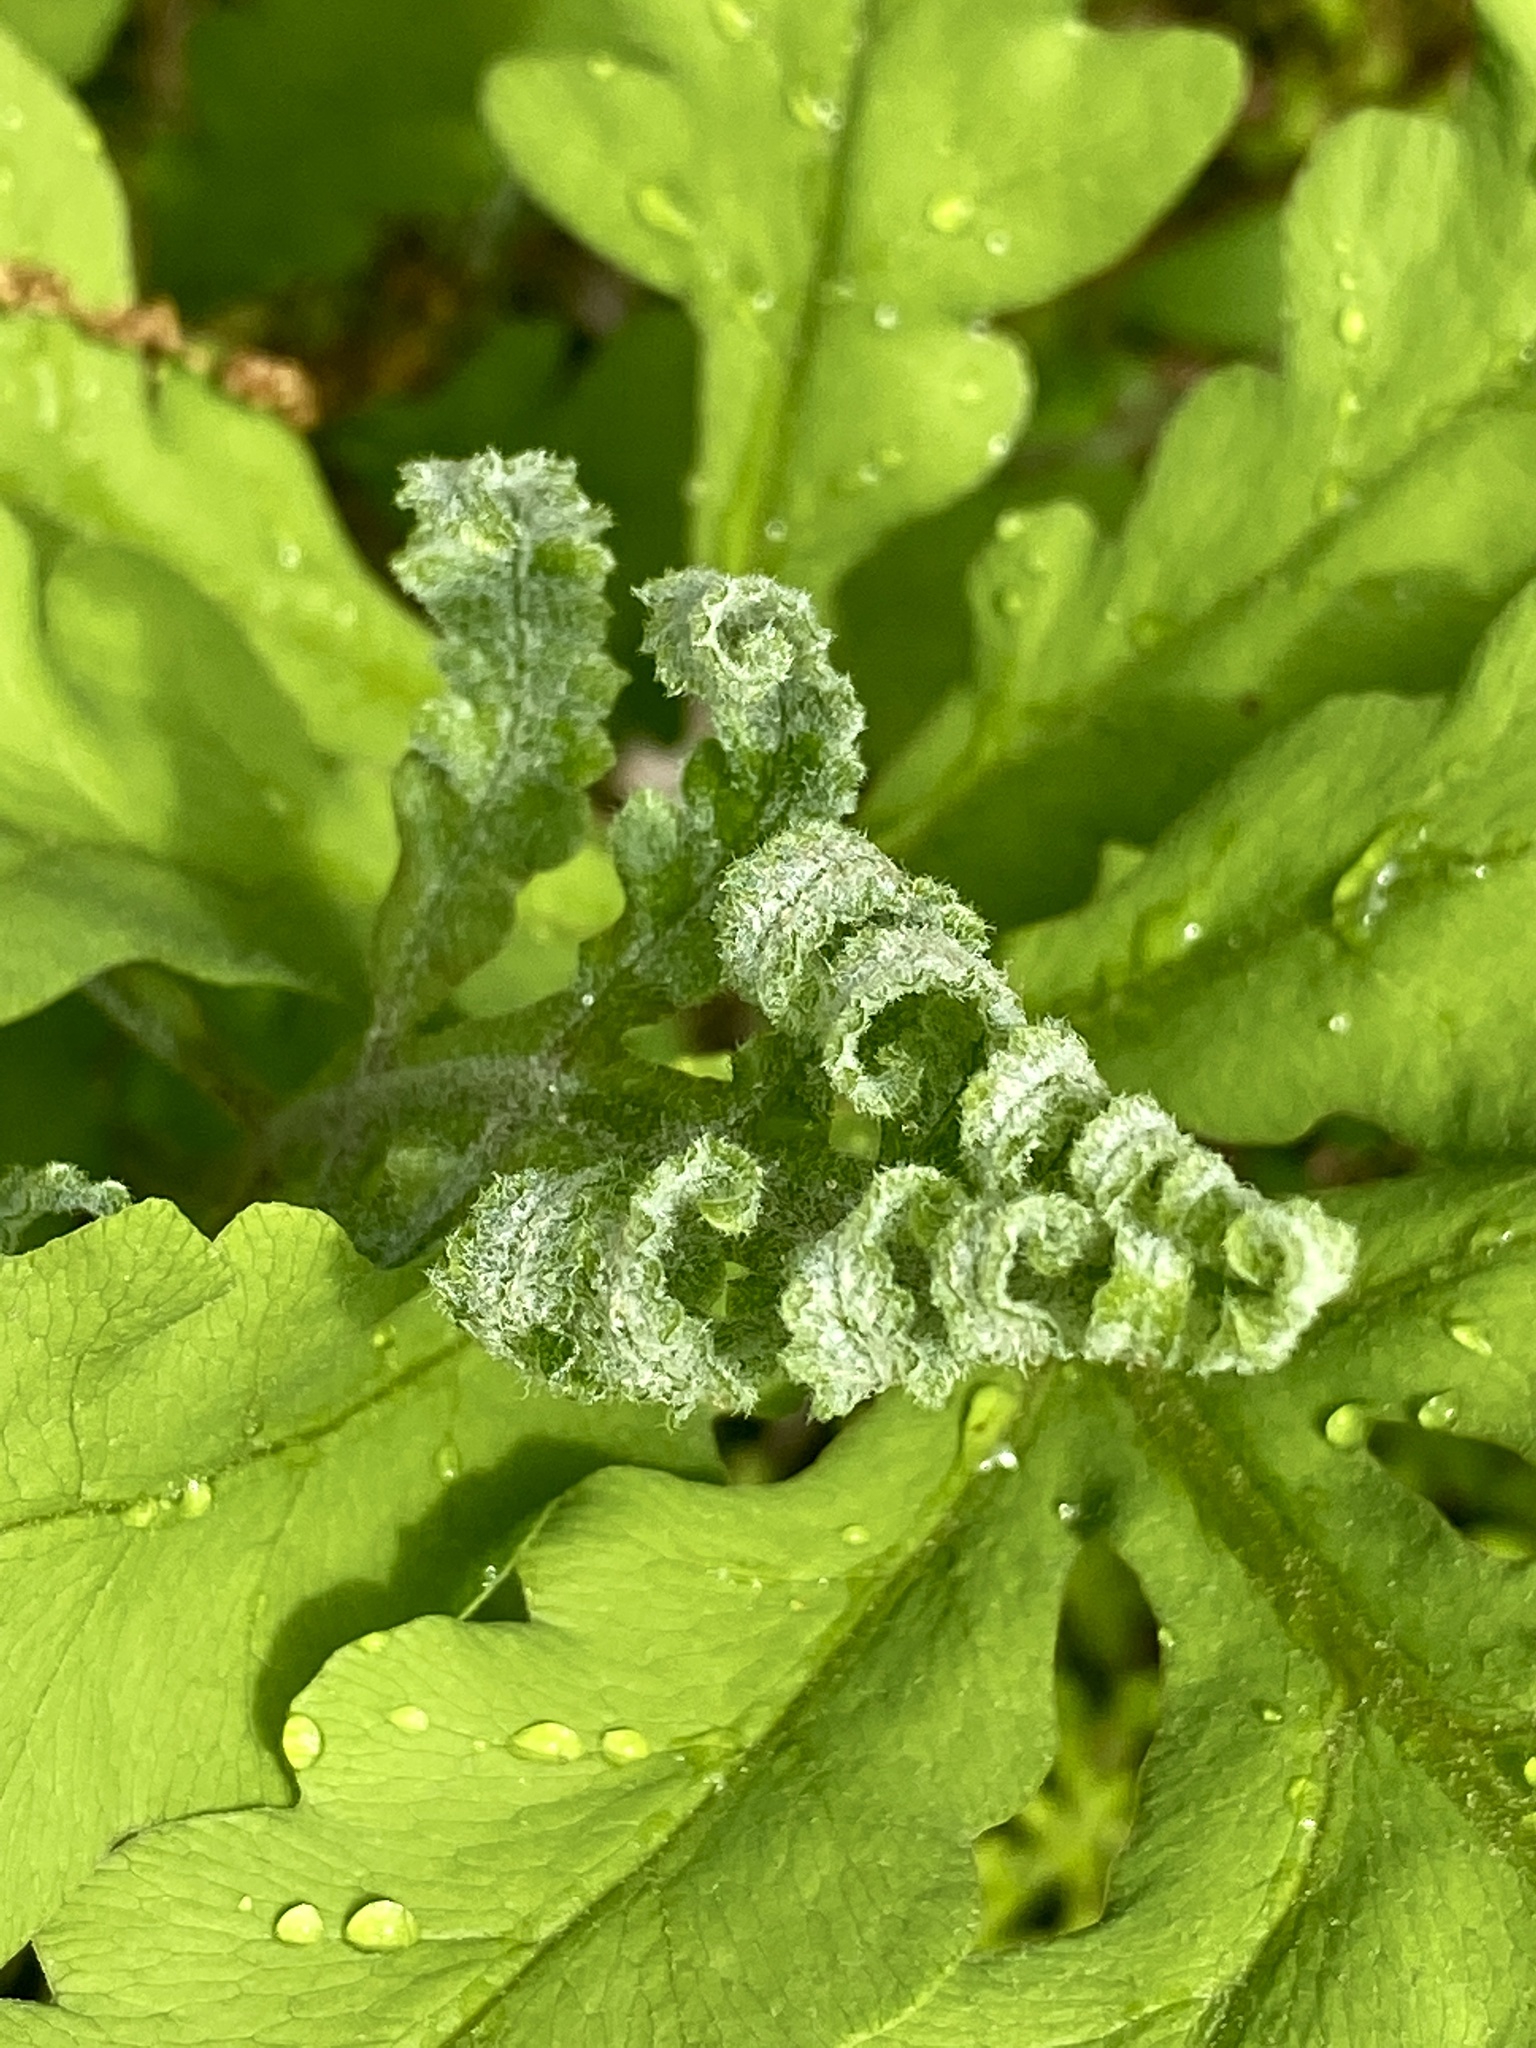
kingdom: Plantae
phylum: Tracheophyta
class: Polypodiopsida
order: Polypodiales
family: Onocleaceae
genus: Onoclea
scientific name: Onoclea sensibilis
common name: Sensitive fern
